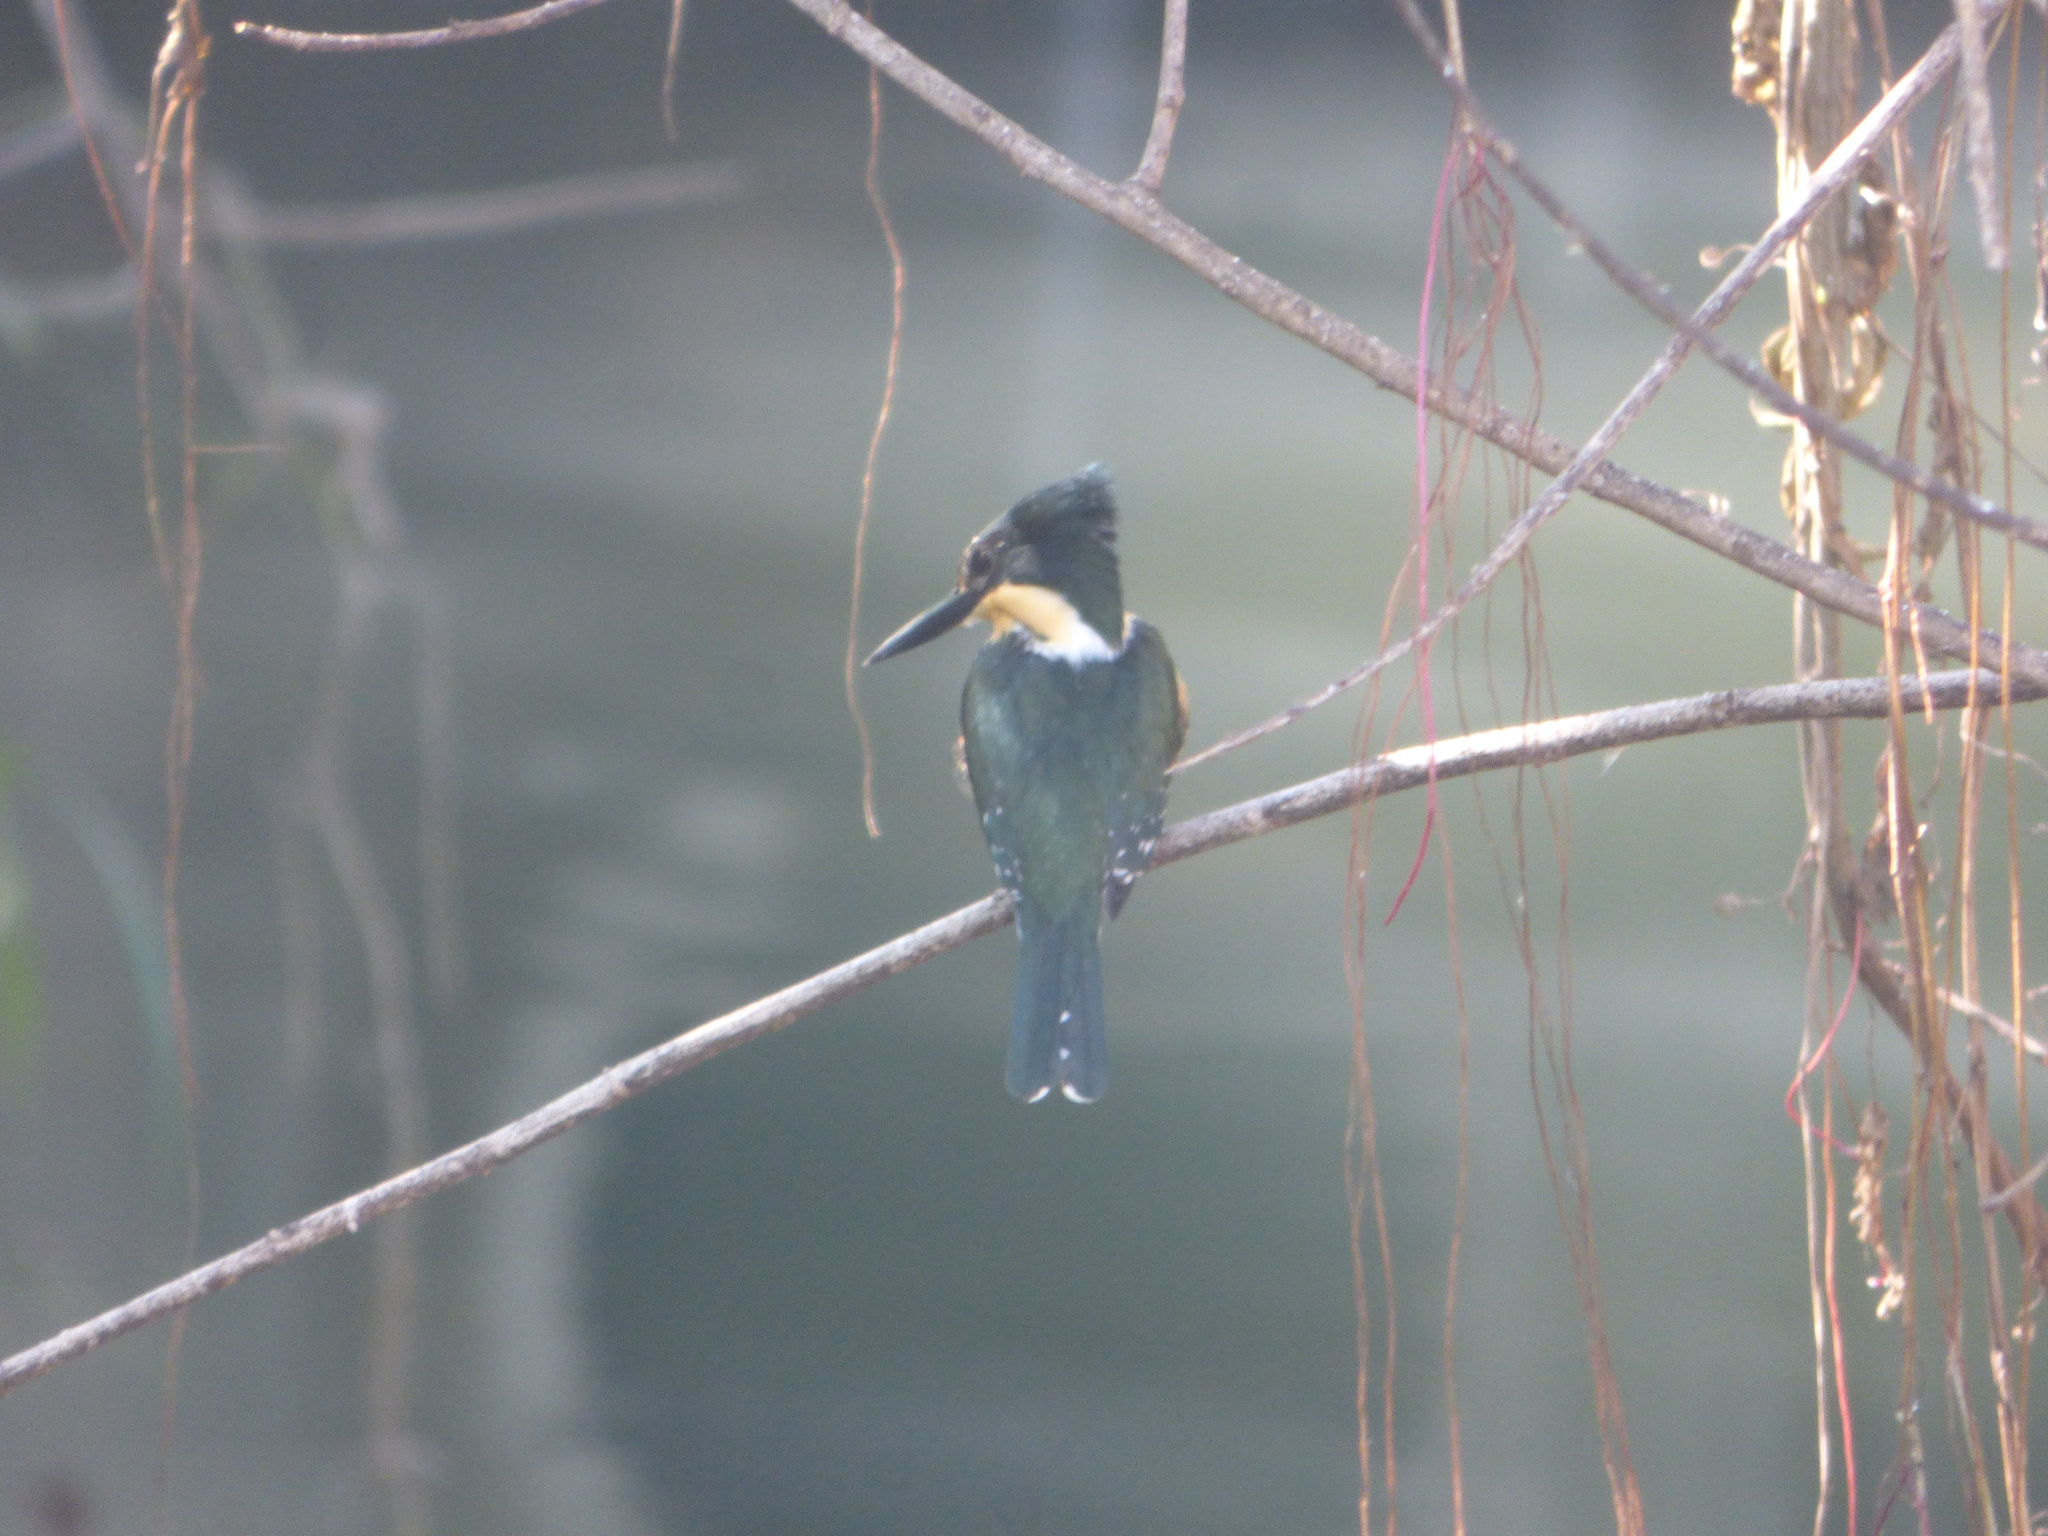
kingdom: Animalia
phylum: Chordata
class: Aves
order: Coraciiformes
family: Alcedinidae
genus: Chloroceryle
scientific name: Chloroceryle americana
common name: Green kingfisher
